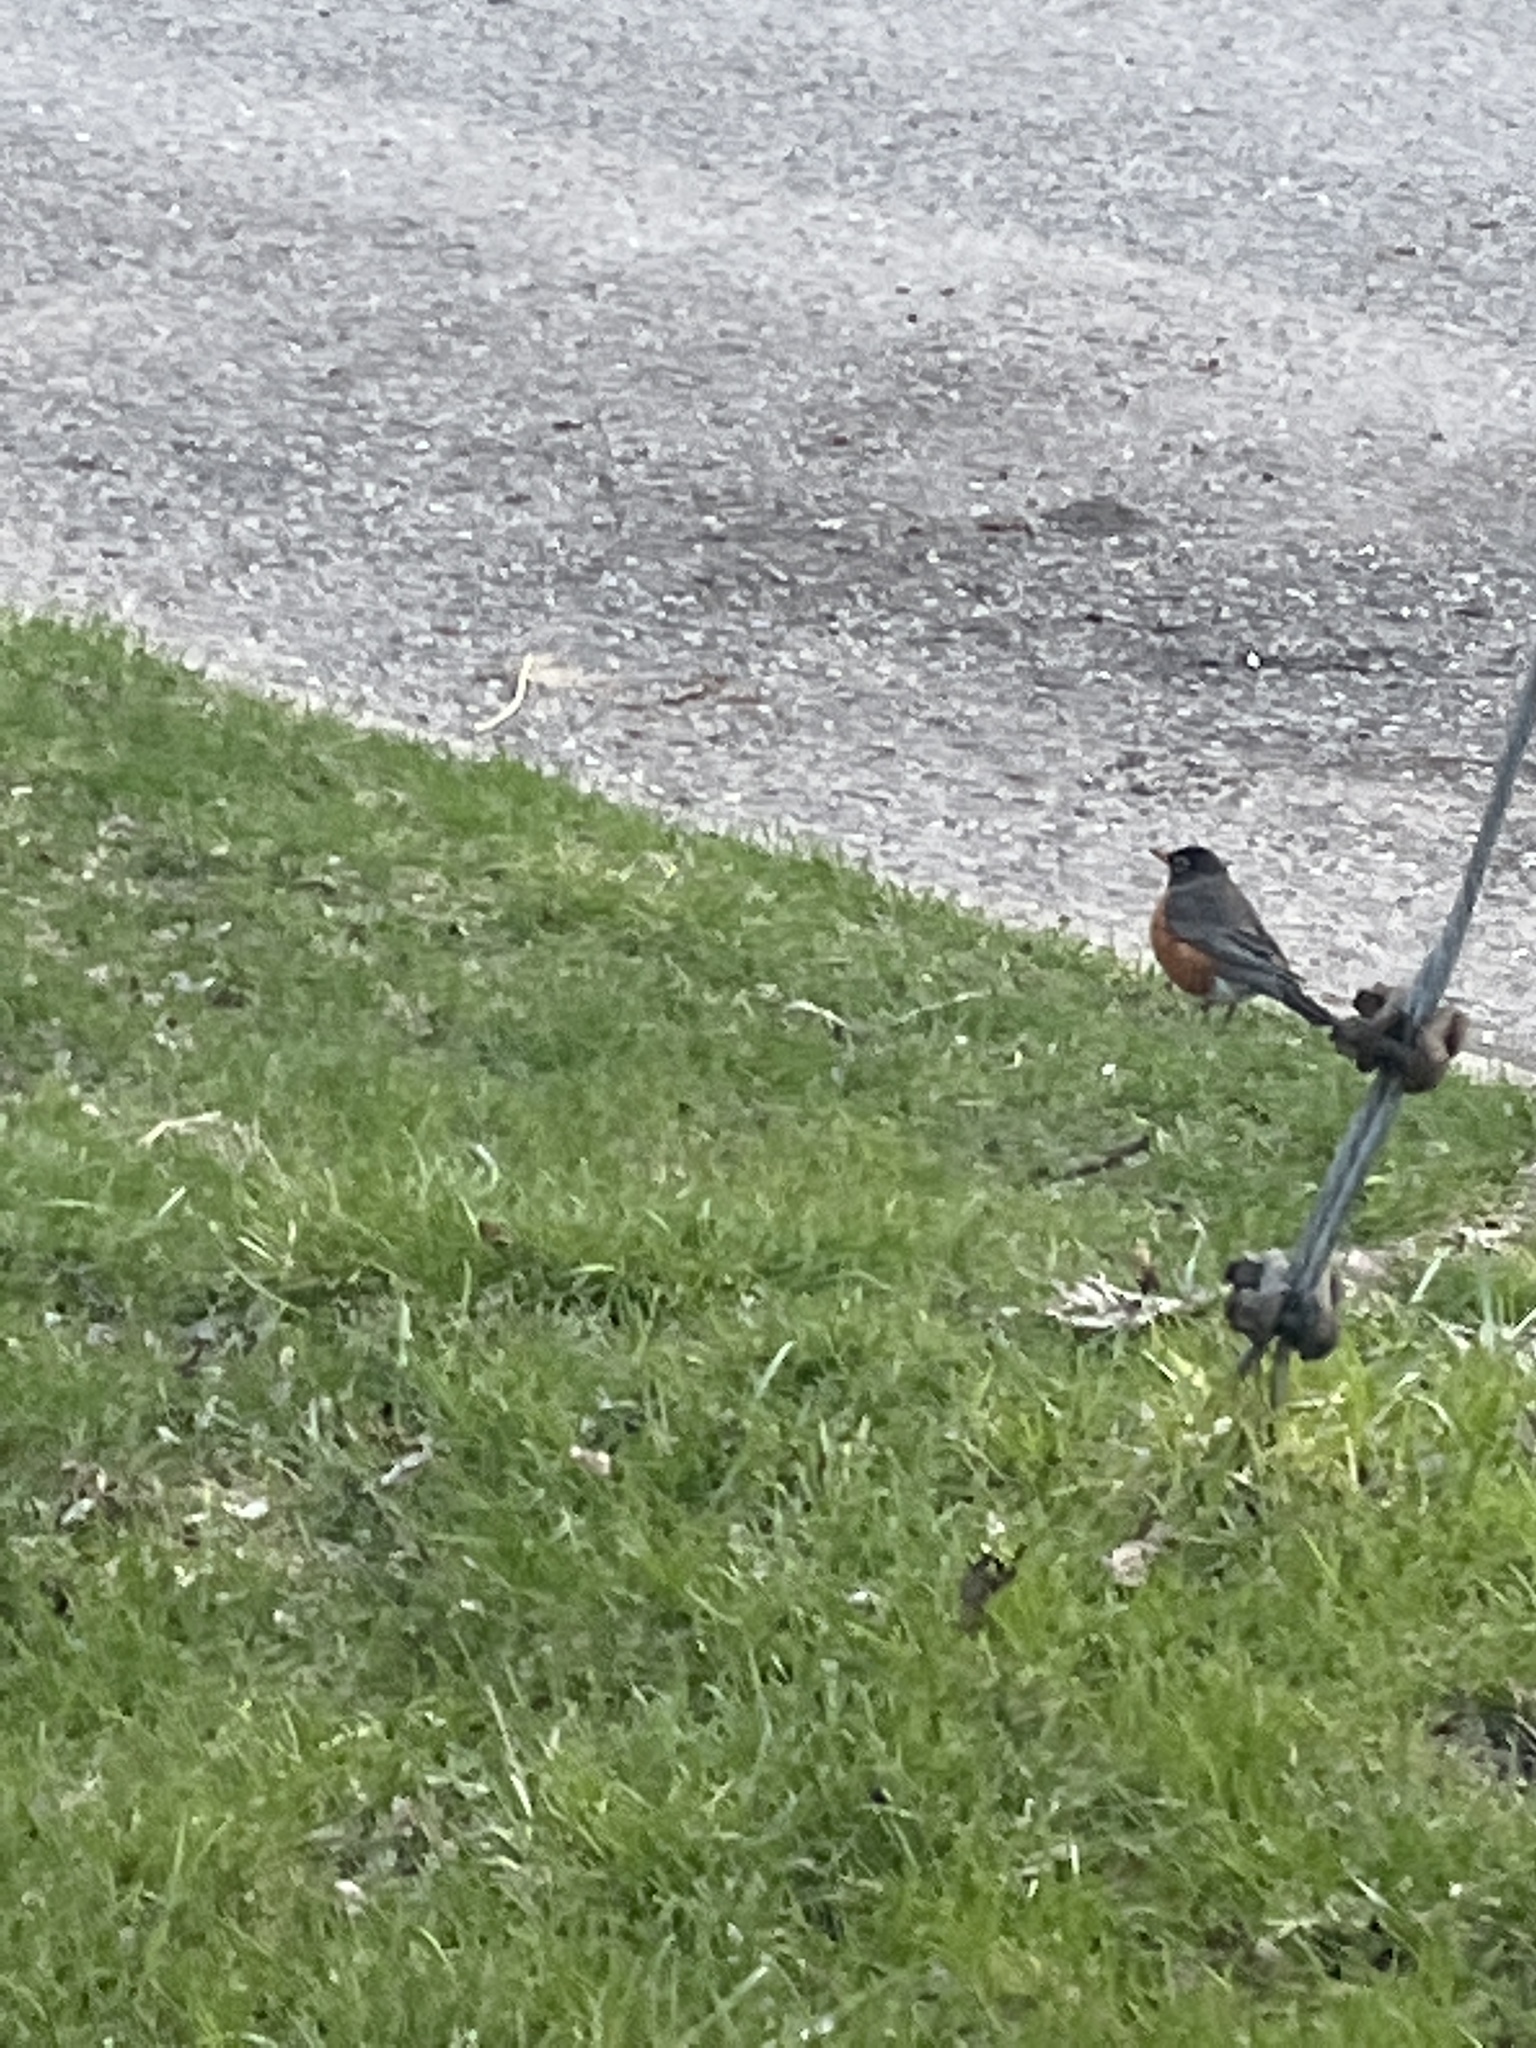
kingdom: Animalia
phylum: Chordata
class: Aves
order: Passeriformes
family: Turdidae
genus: Turdus
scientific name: Turdus migratorius
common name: American robin
